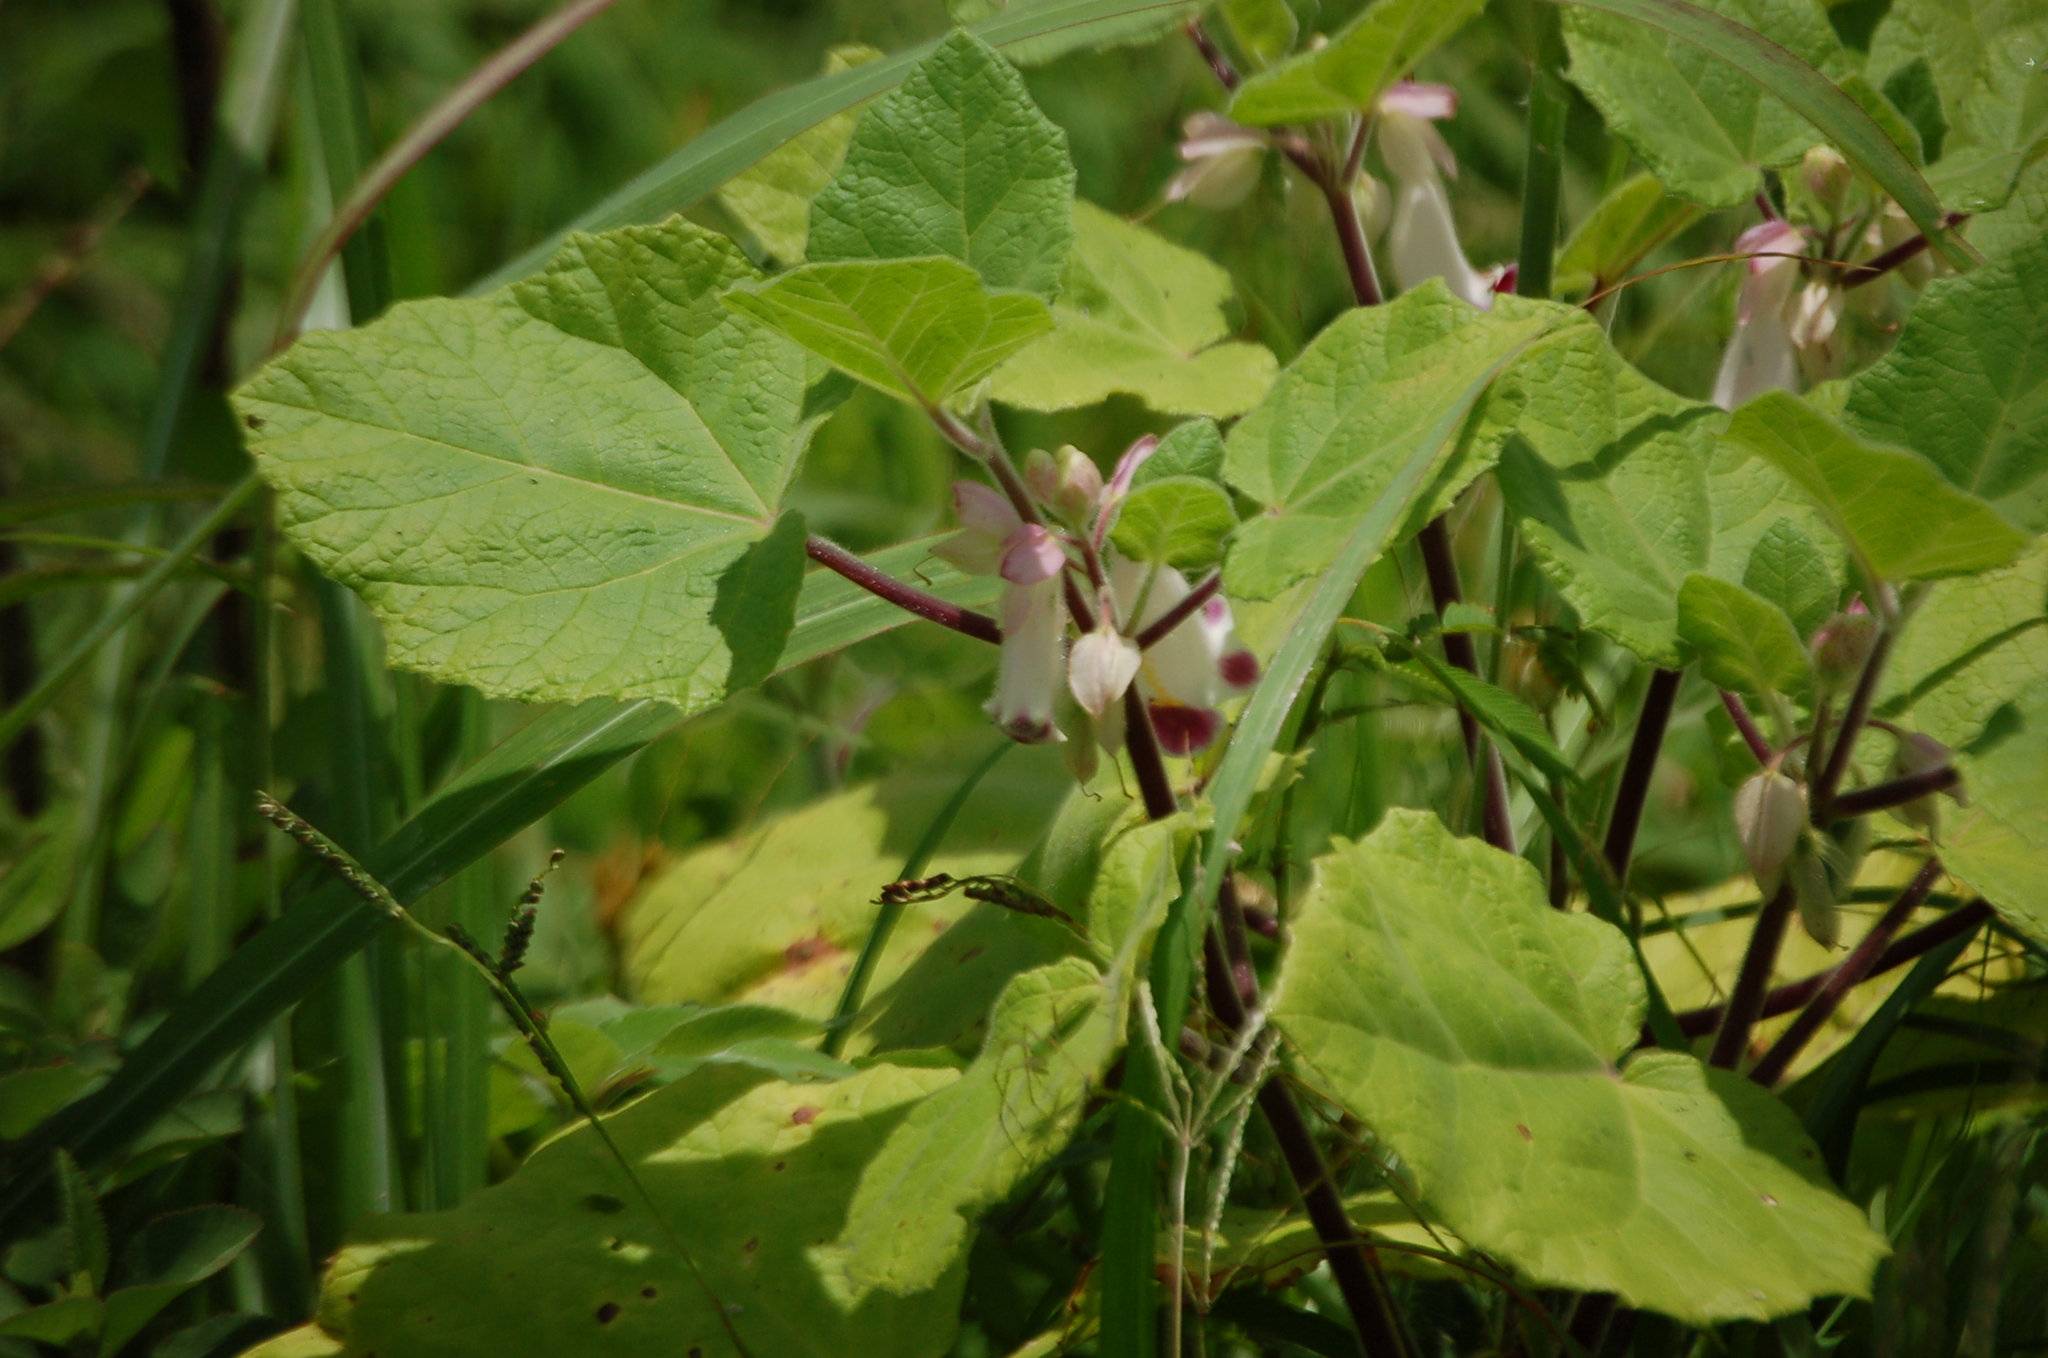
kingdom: Plantae
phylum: Tracheophyta
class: Magnoliopsida
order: Lamiales
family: Martyniaceae
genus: Martynia
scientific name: Martynia annua
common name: Tiger's-claw
